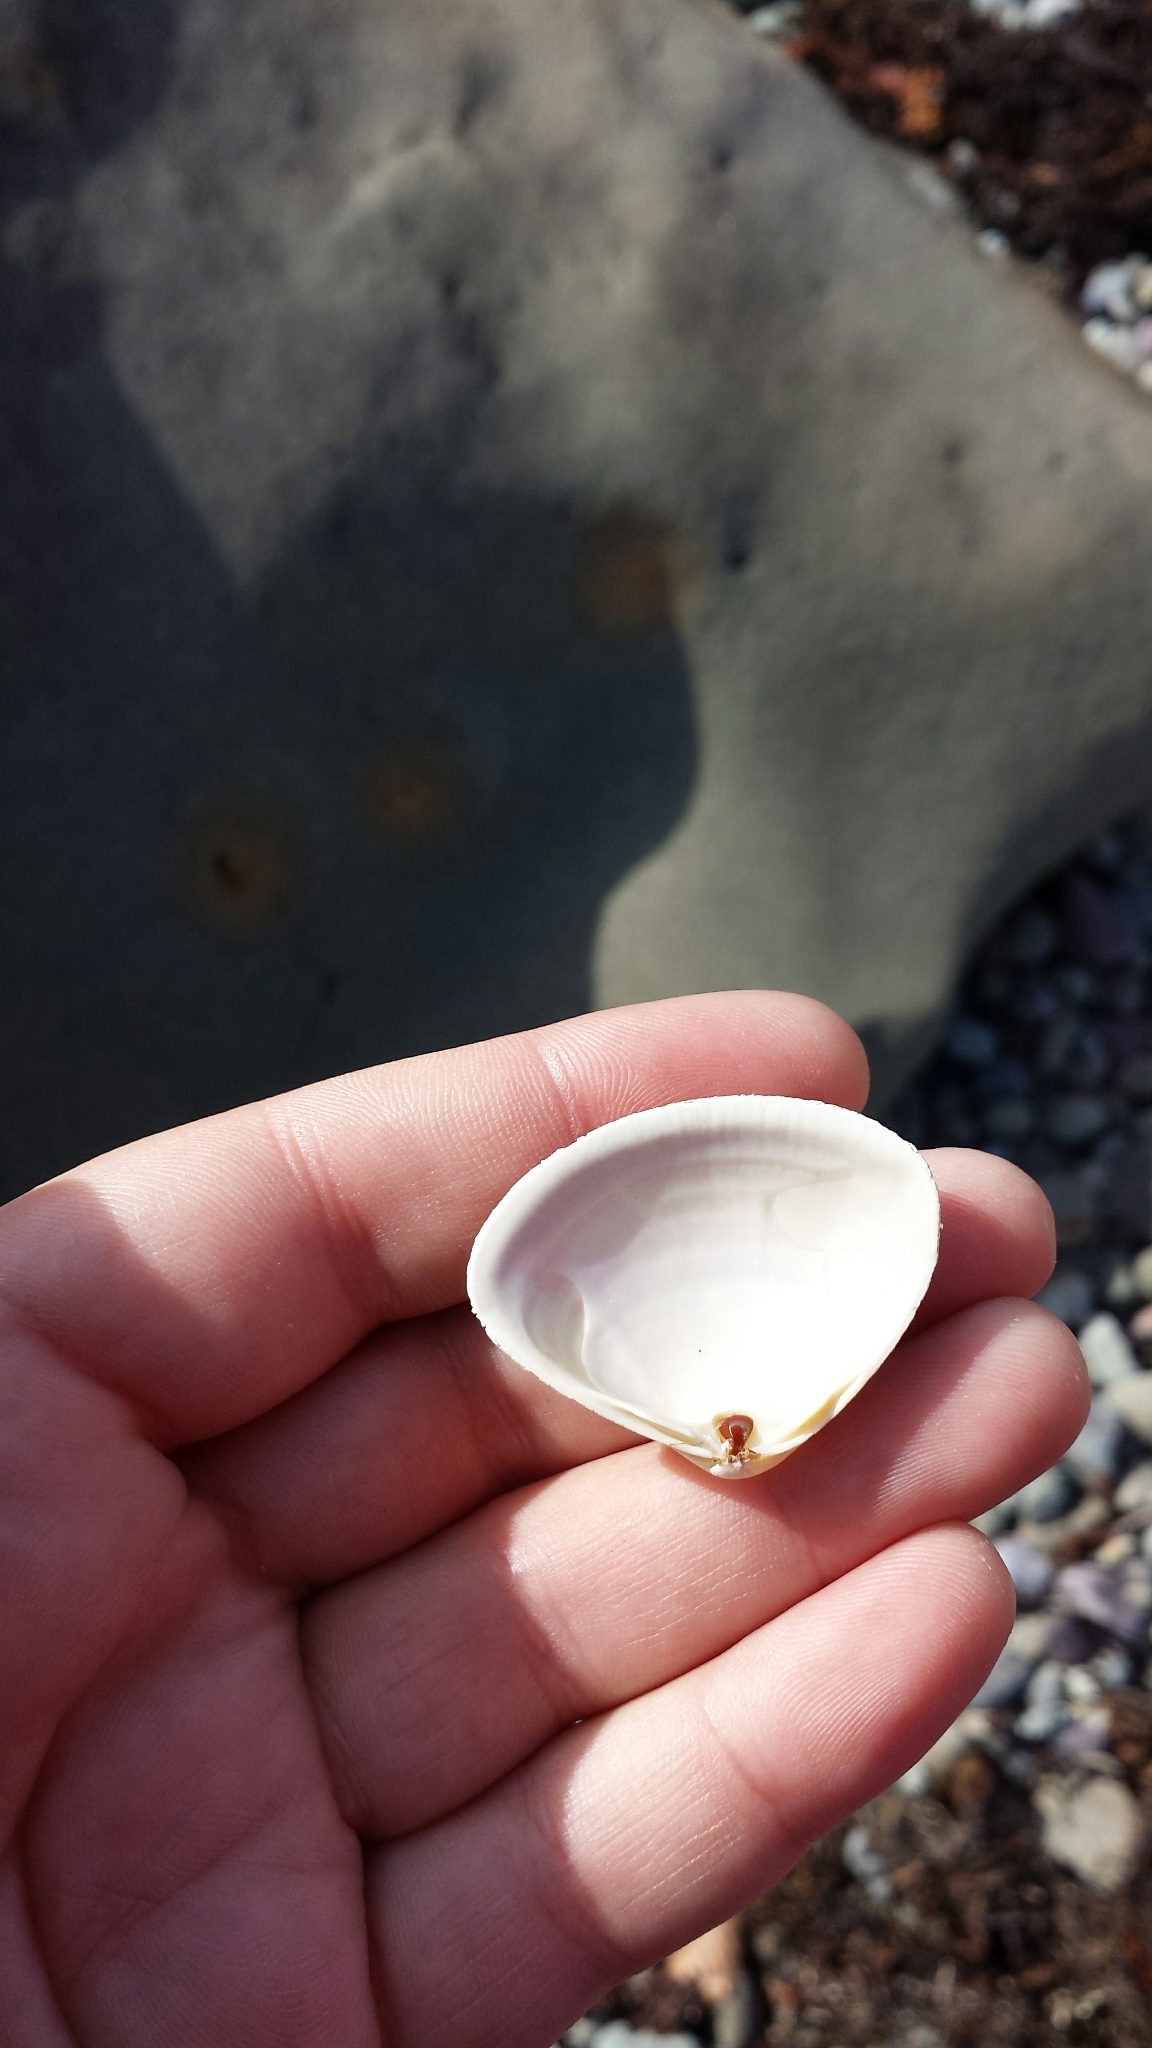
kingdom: Animalia
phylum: Mollusca
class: Bivalvia
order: Venerida
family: Mactridae
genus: Spisula
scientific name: Spisula solidissima
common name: Atlantic surf clam
